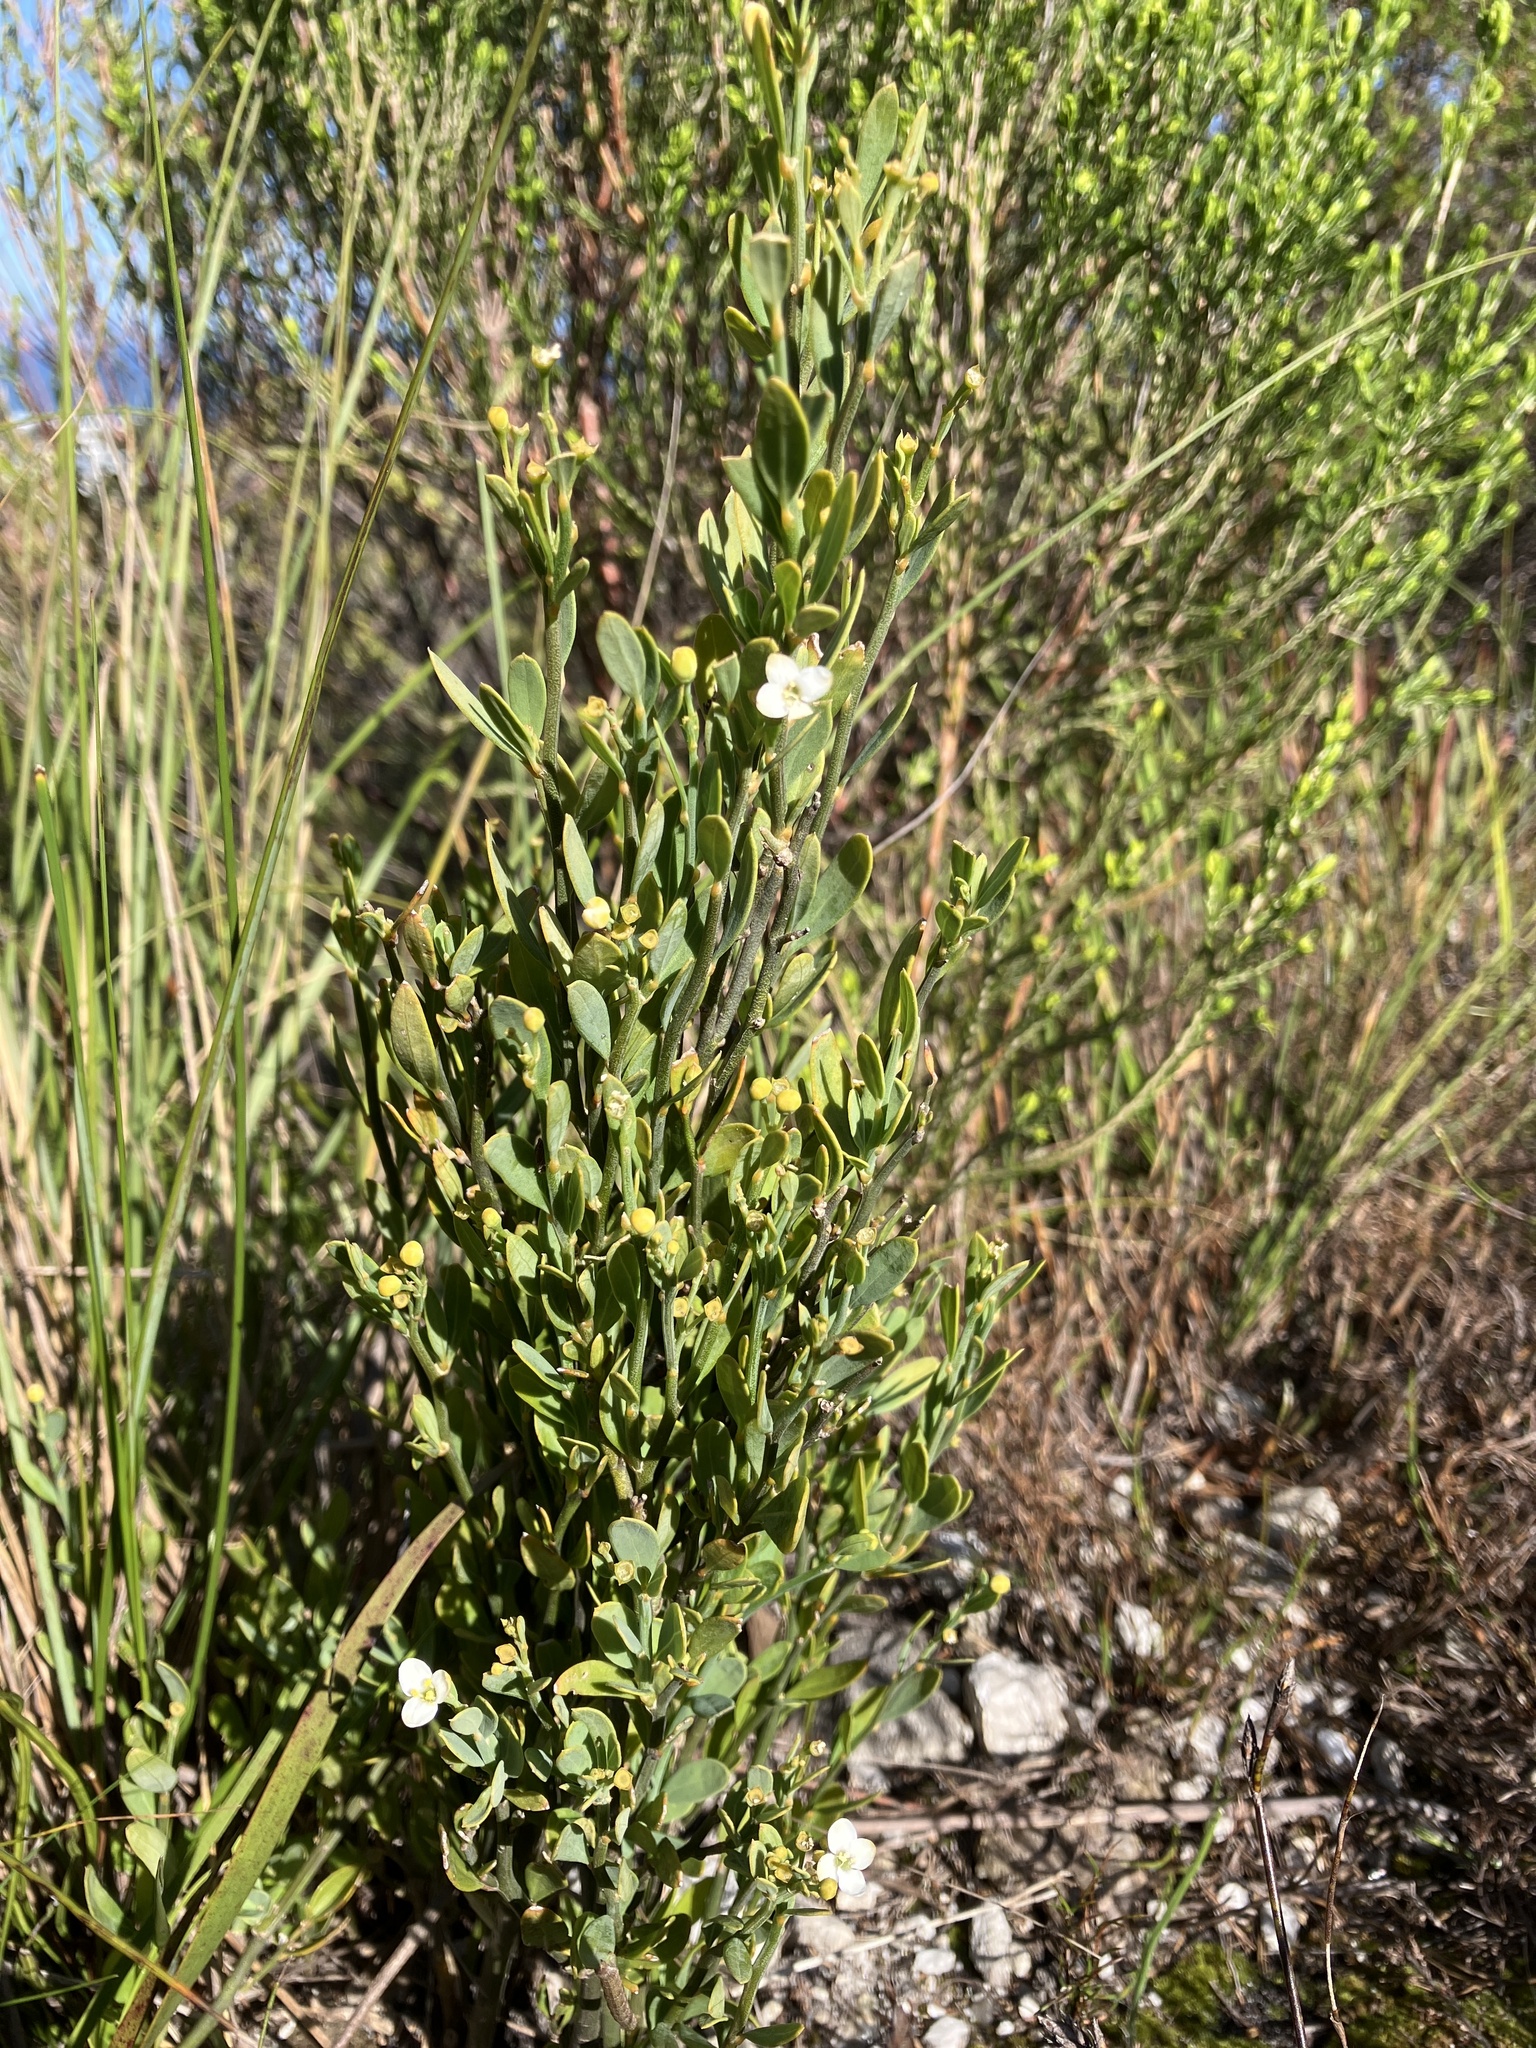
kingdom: Plantae
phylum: Tracheophyta
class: Magnoliopsida
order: Solanales
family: Montiniaceae
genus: Montinia
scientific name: Montinia caryophyllacea
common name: Wild clove-bush
